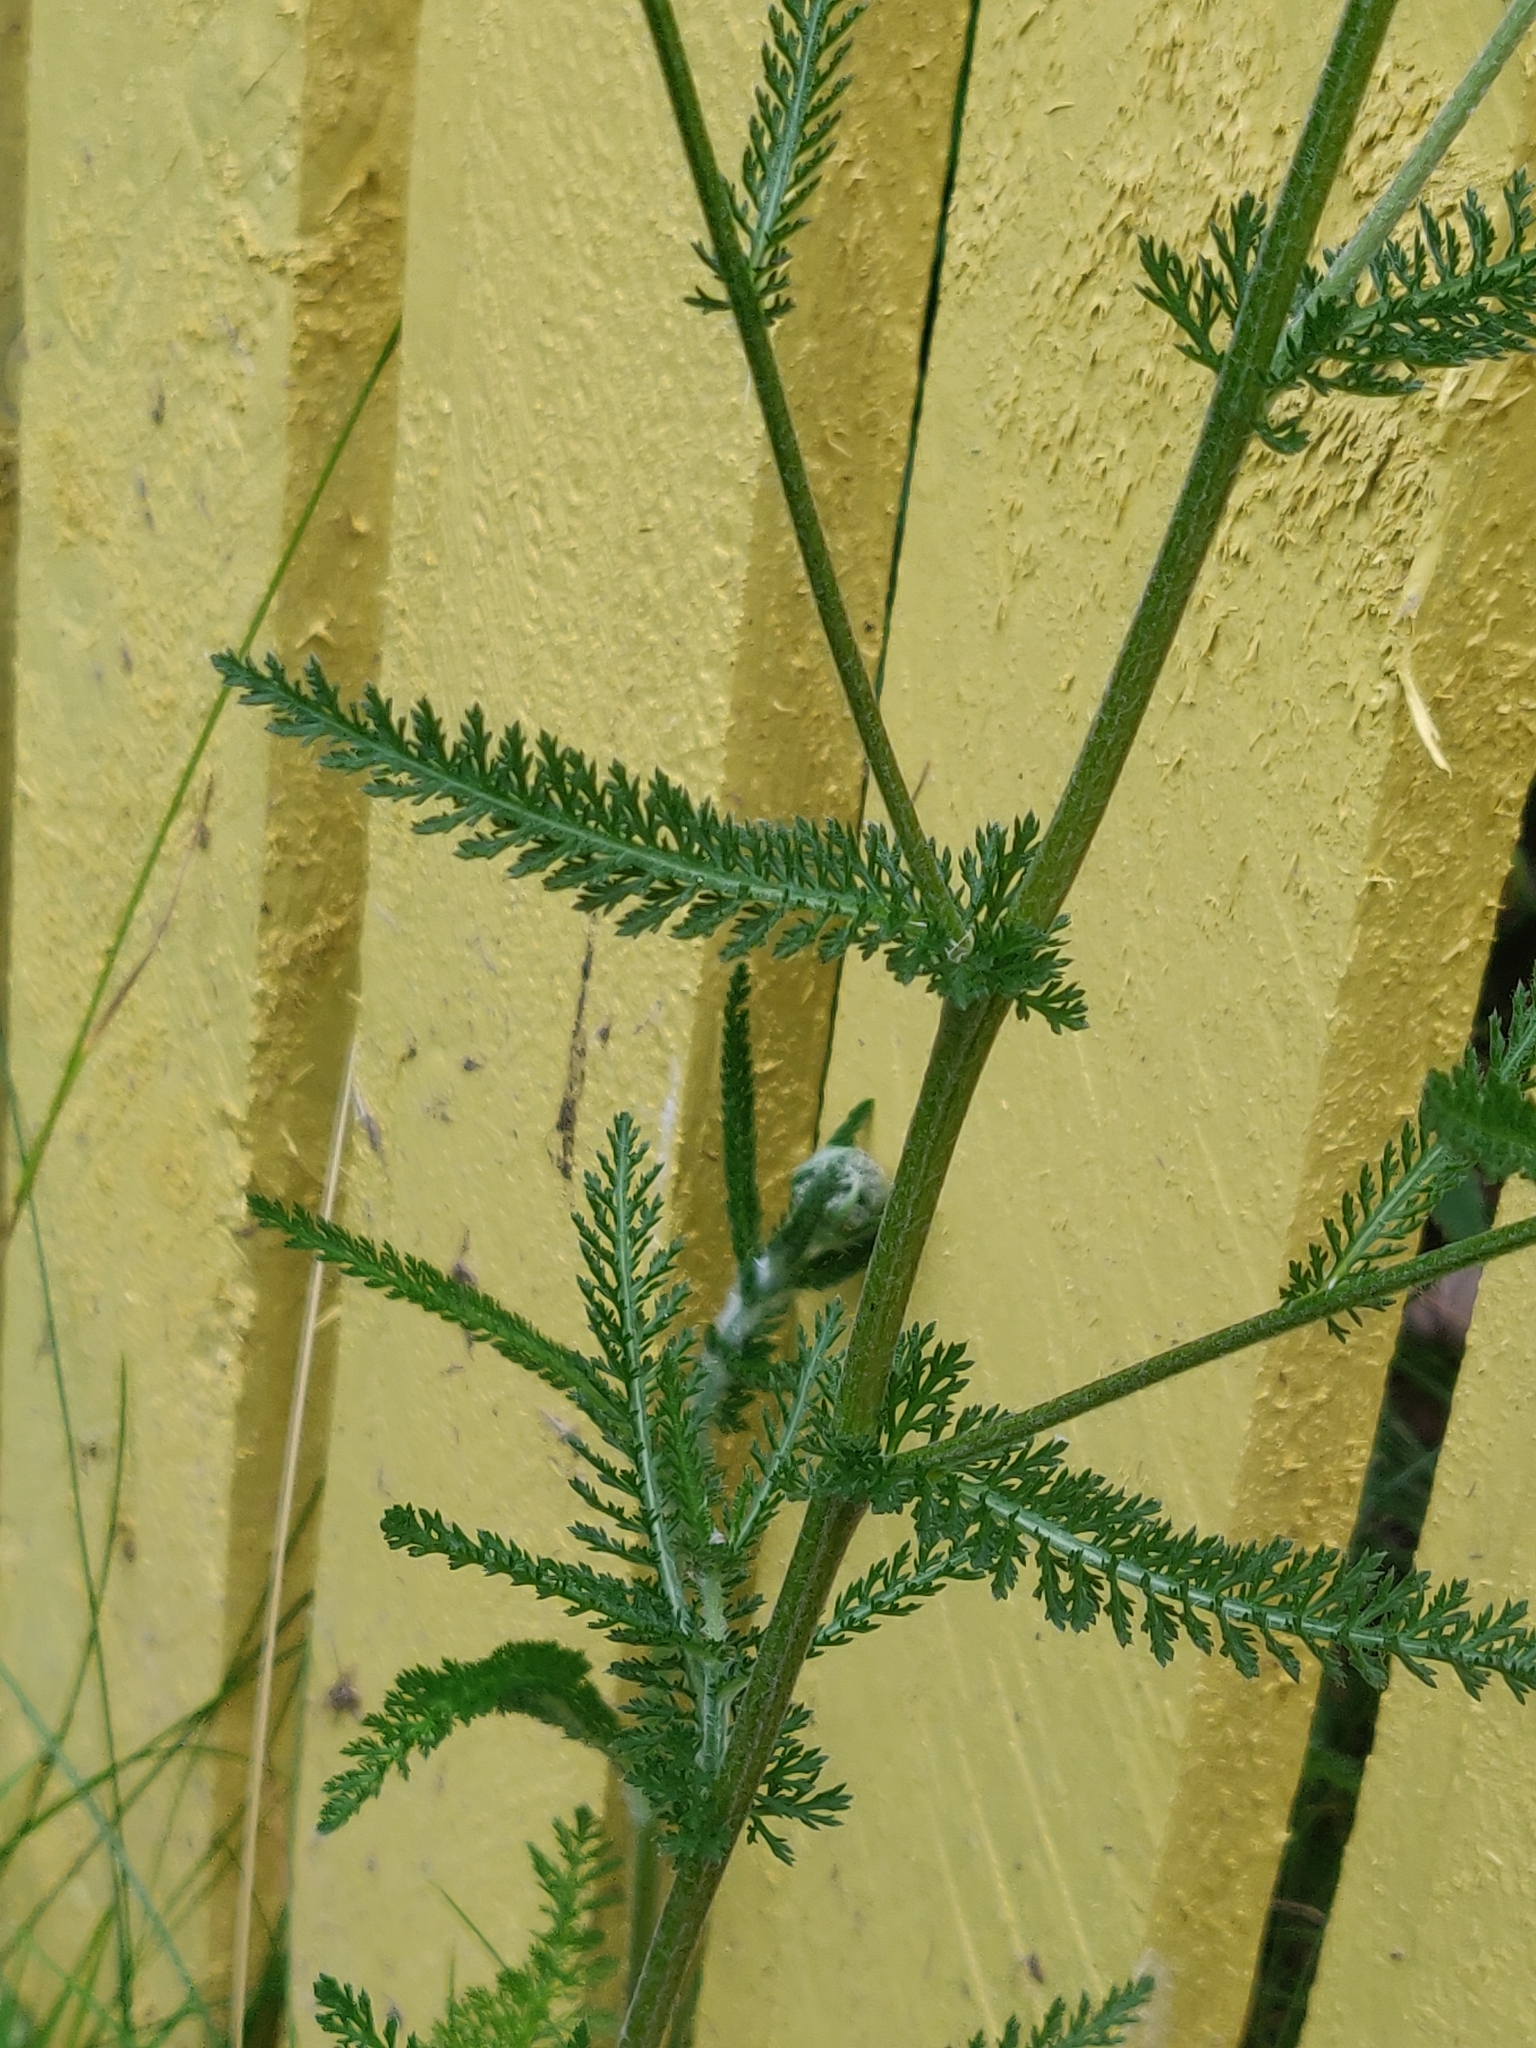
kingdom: Plantae
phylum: Tracheophyta
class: Magnoliopsida
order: Asterales
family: Asteraceae
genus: Achillea
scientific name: Achillea millefolium
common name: Yarrow
